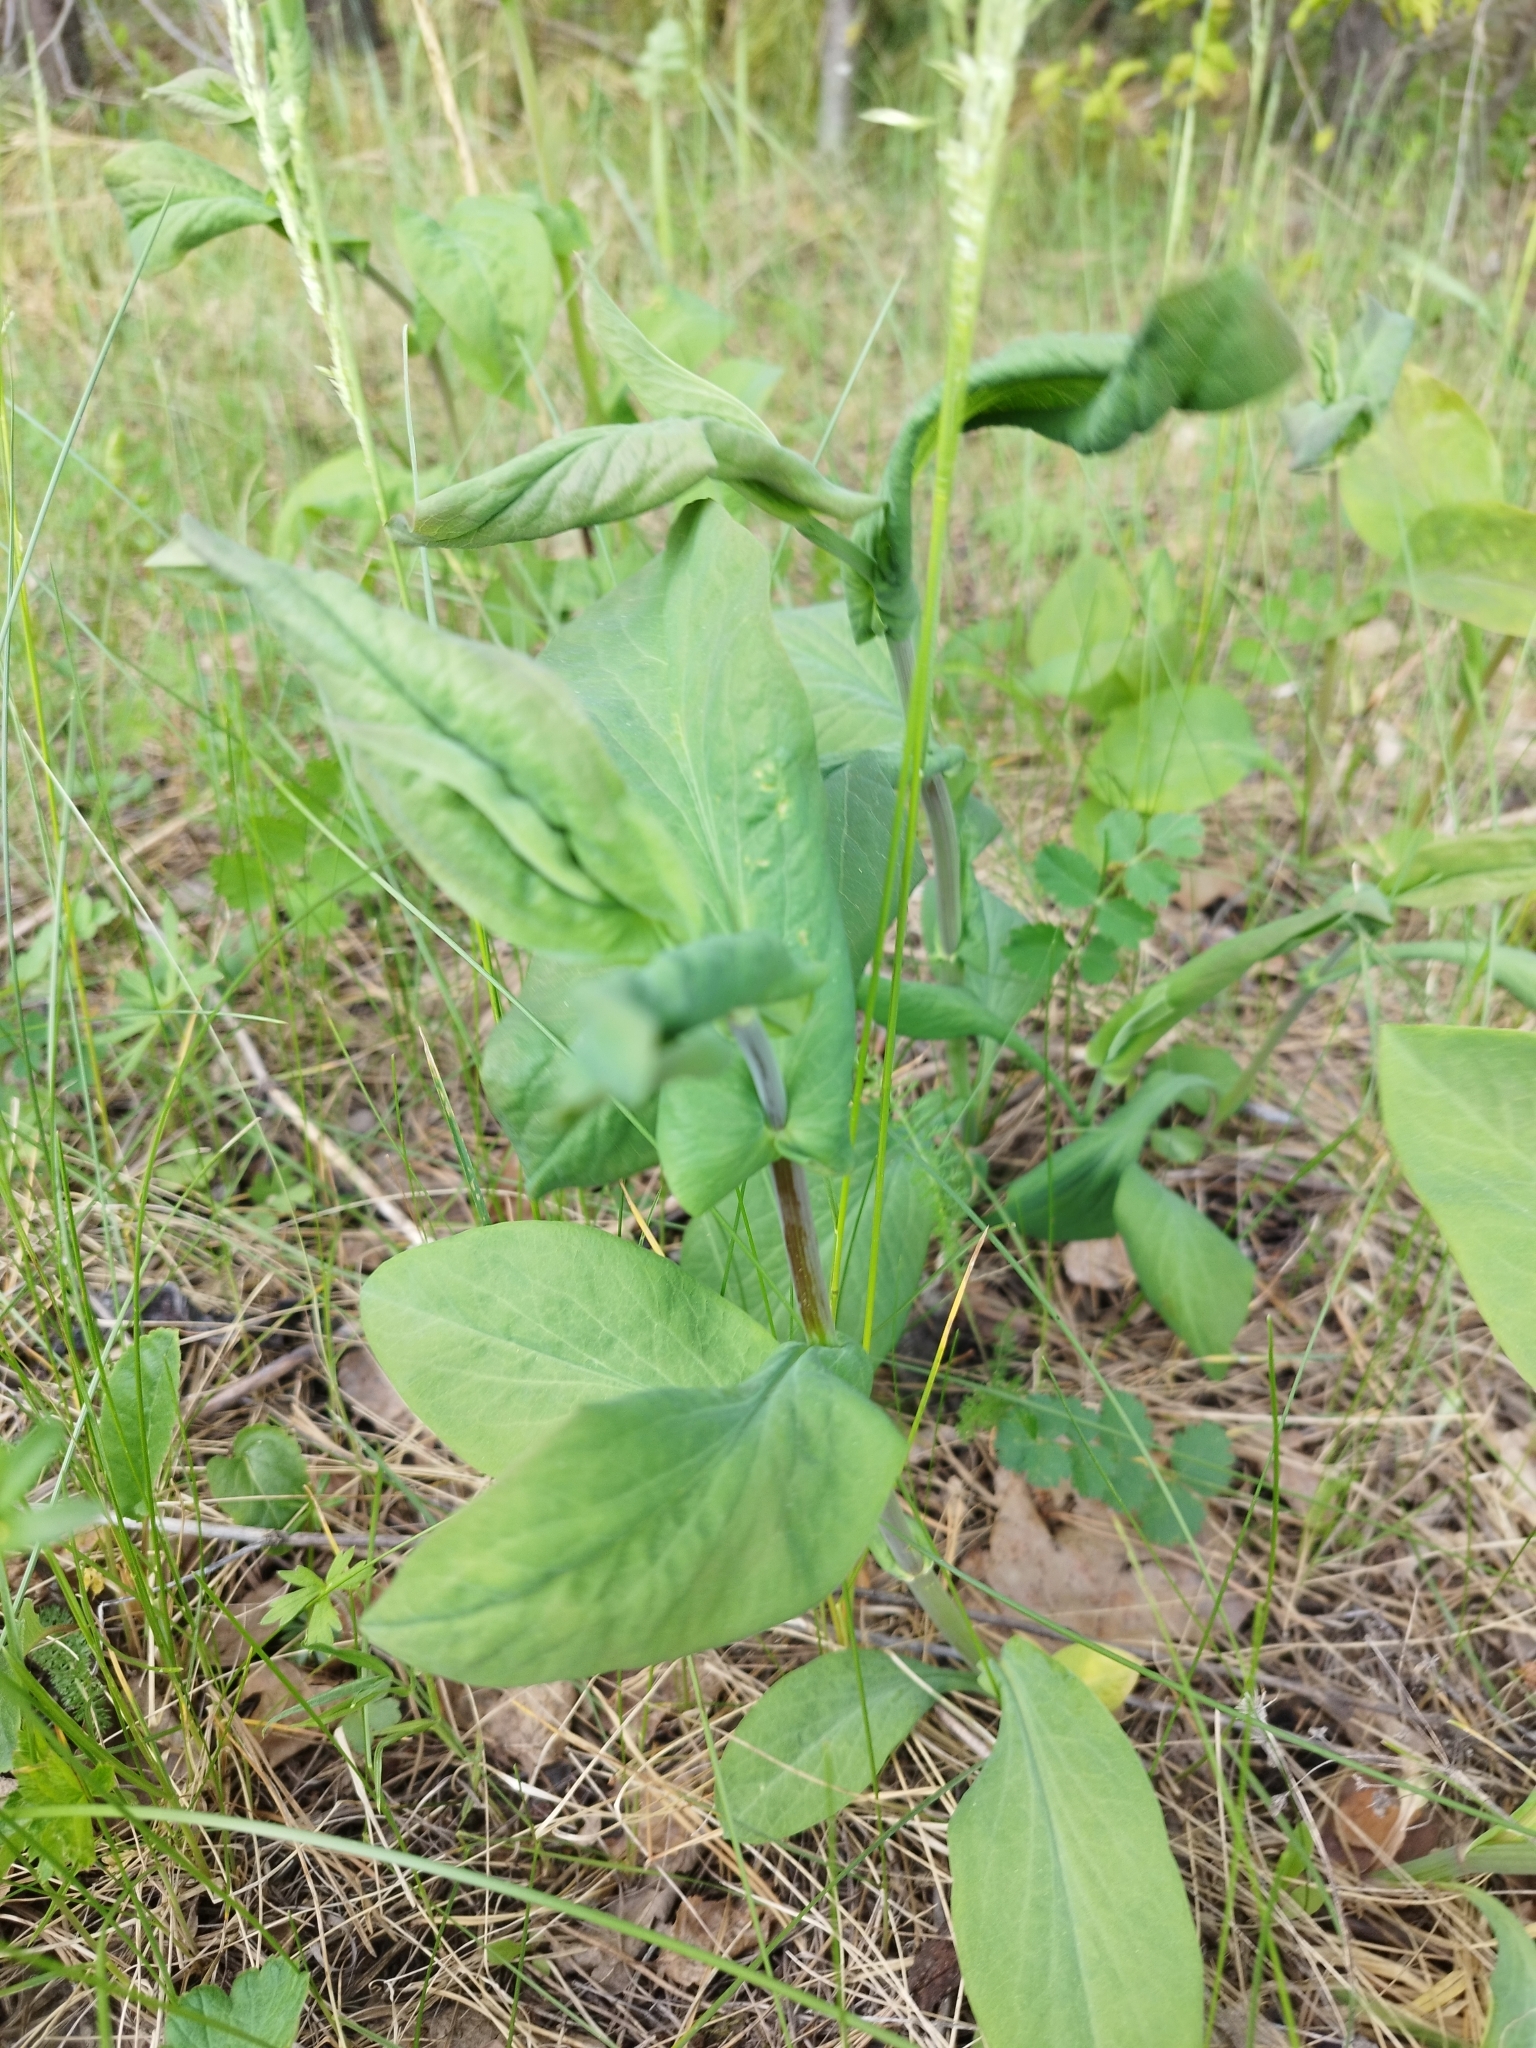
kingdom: Plantae
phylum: Tracheophyta
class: Magnoliopsida
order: Apiales
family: Apiaceae
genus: Bupleurum
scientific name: Bupleurum aureum
